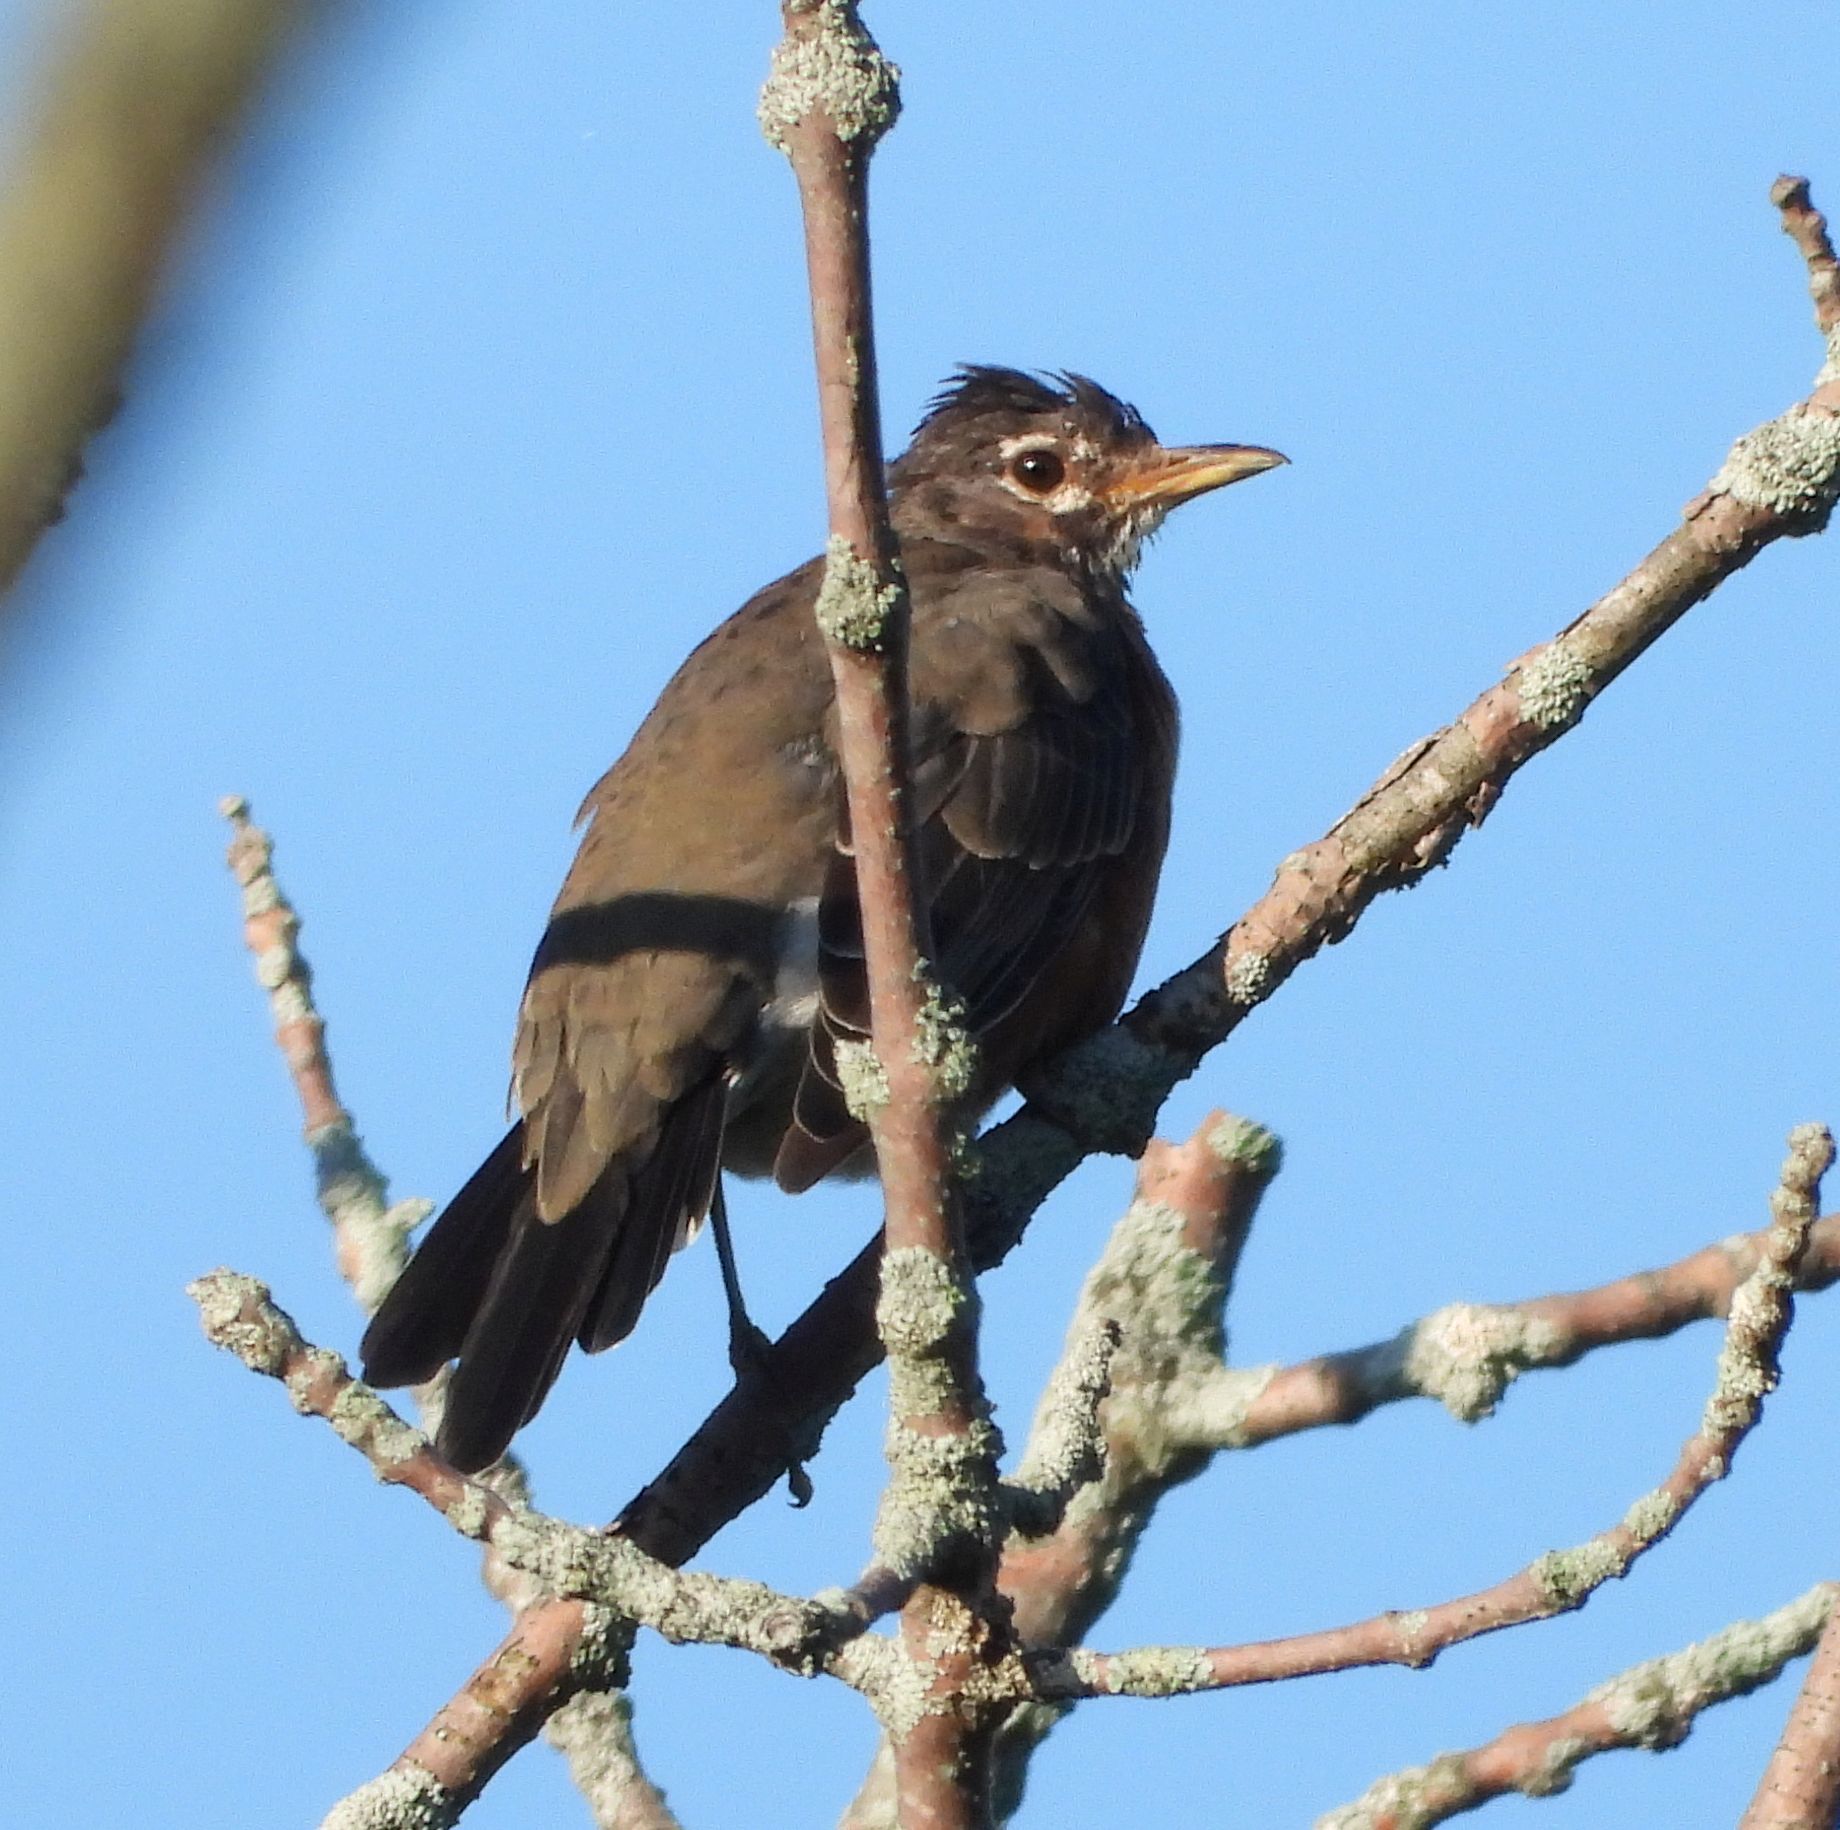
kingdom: Animalia
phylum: Chordata
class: Aves
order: Passeriformes
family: Turdidae
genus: Turdus
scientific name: Turdus migratorius
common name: American robin
